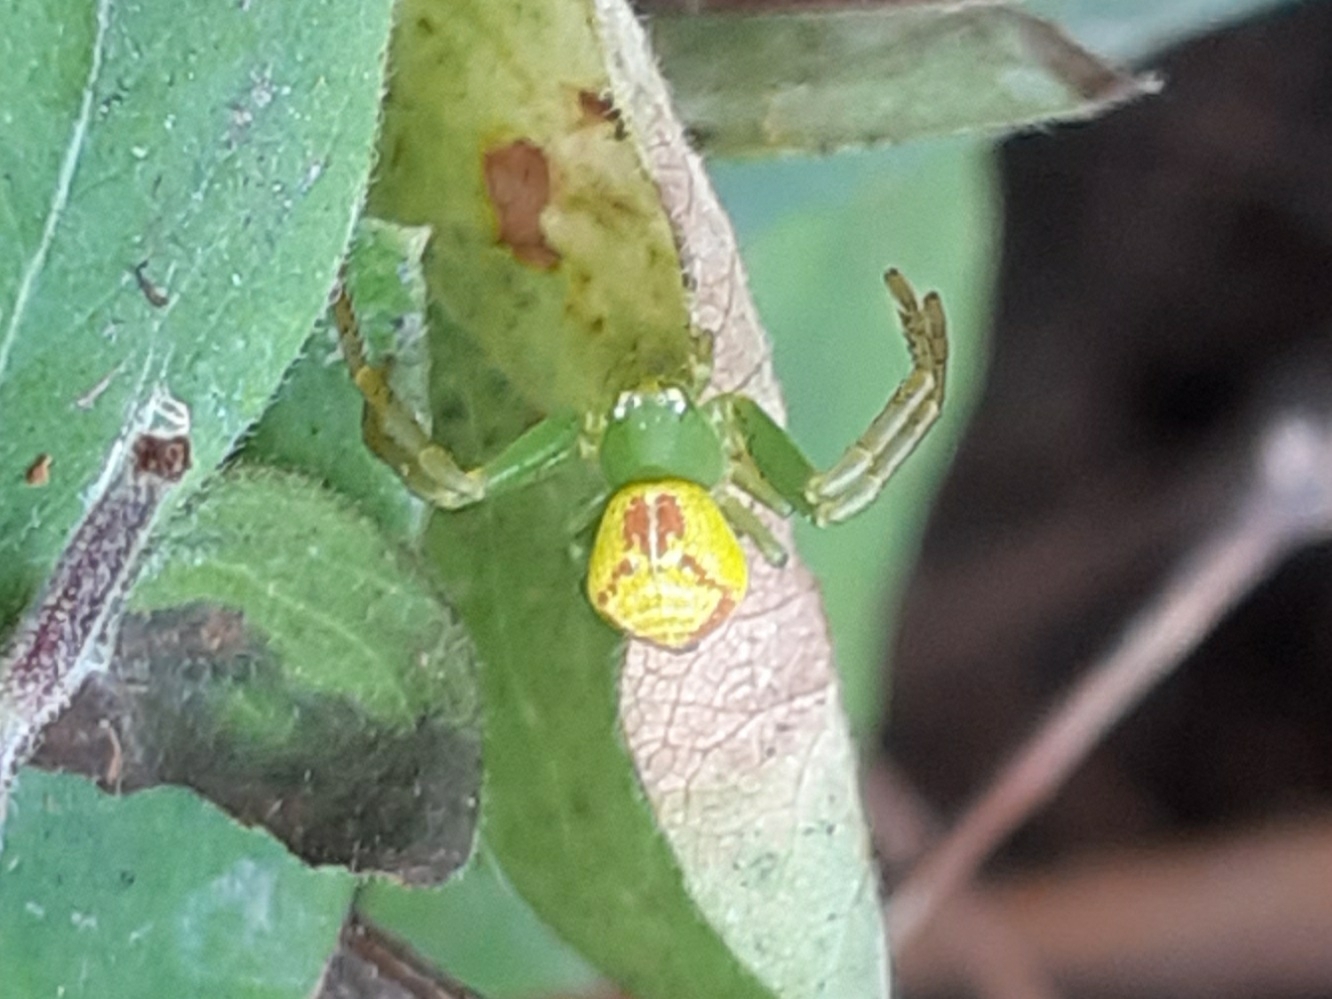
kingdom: Animalia
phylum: Arthropoda
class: Arachnida
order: Araneae
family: Thomisidae
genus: Ebrechtella
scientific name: Ebrechtella tricuspidata
